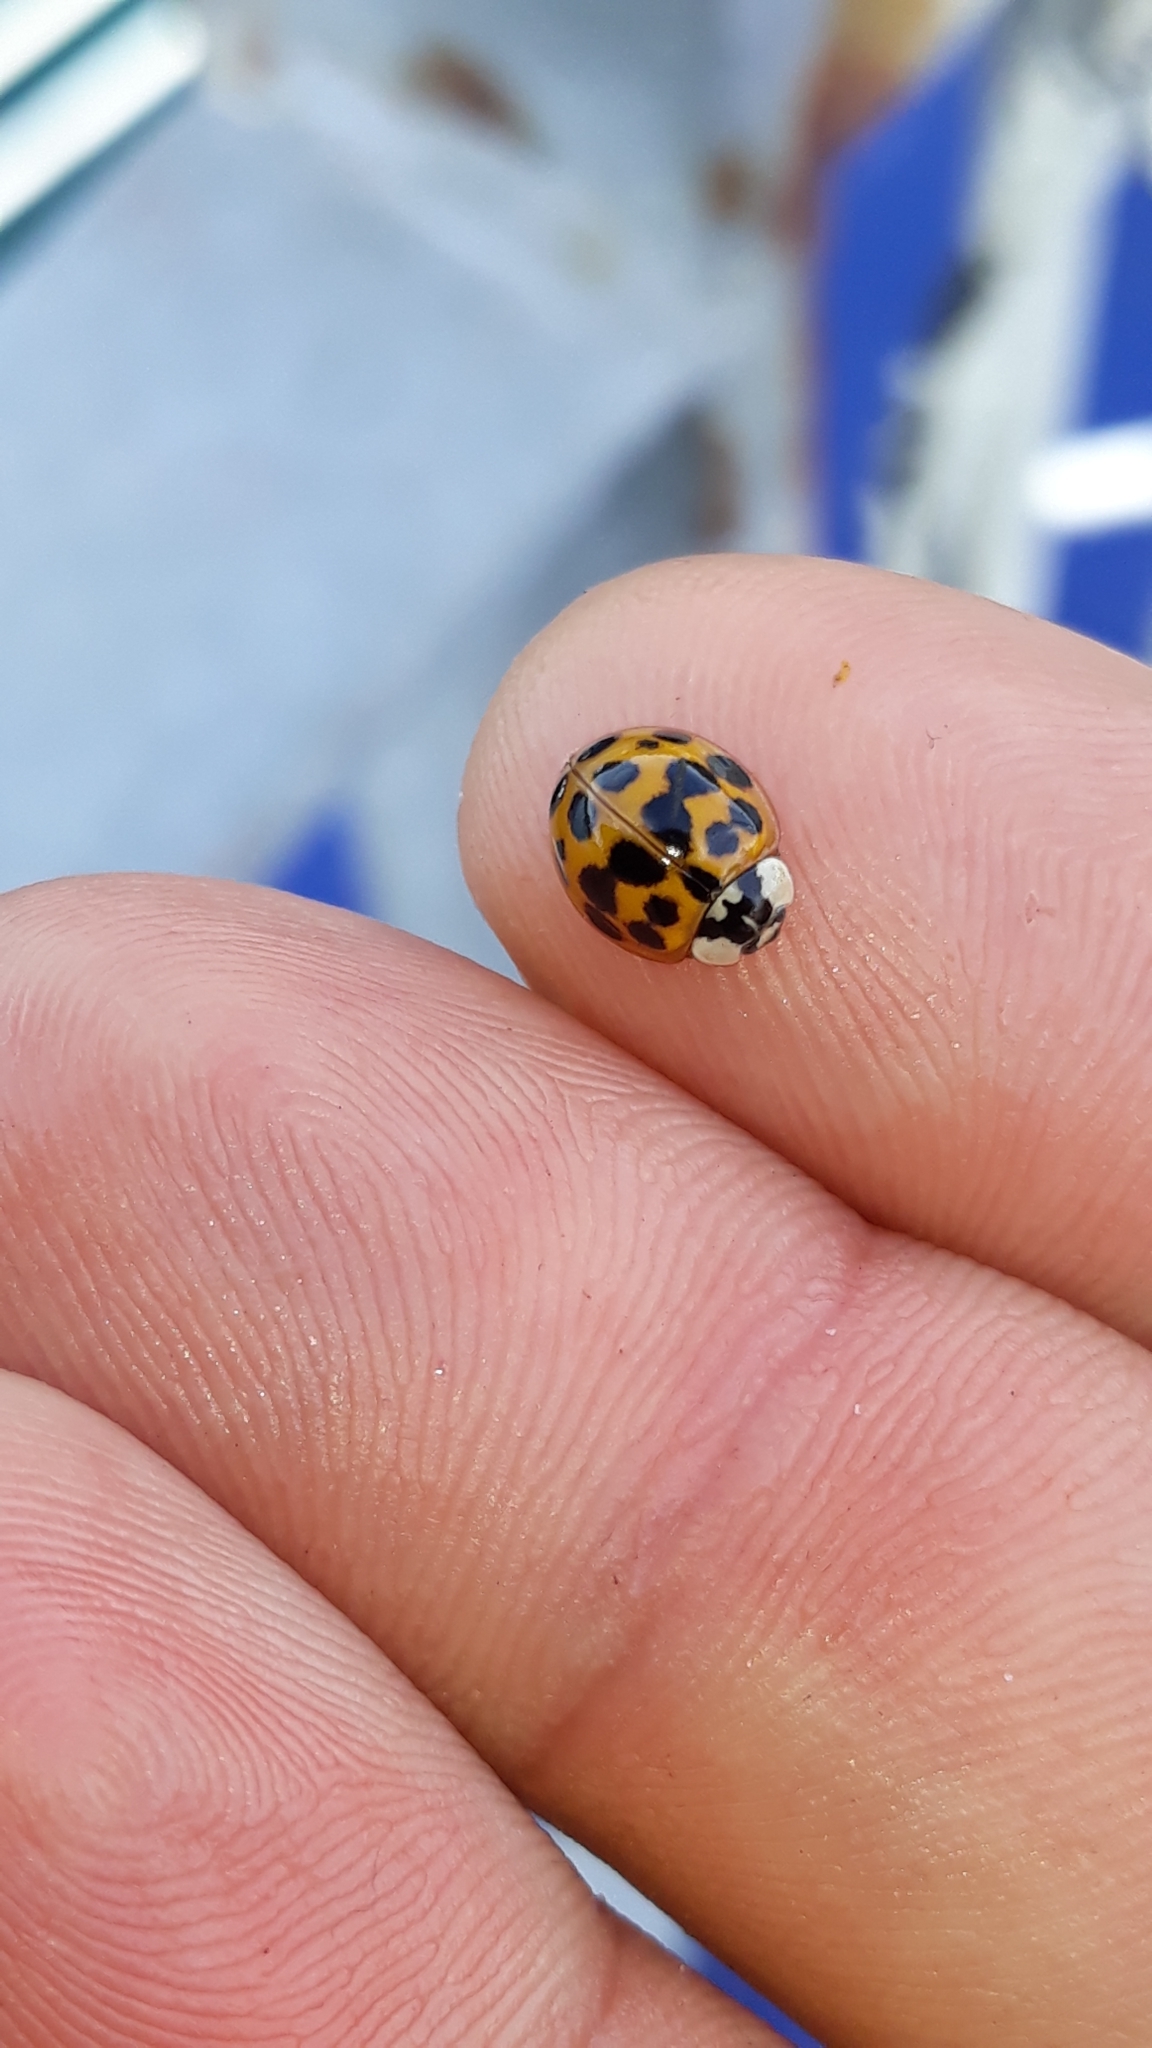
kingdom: Animalia
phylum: Arthropoda
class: Insecta
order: Coleoptera
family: Coccinellidae
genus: Harmonia
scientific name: Harmonia axyridis
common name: Harlequin ladybird
